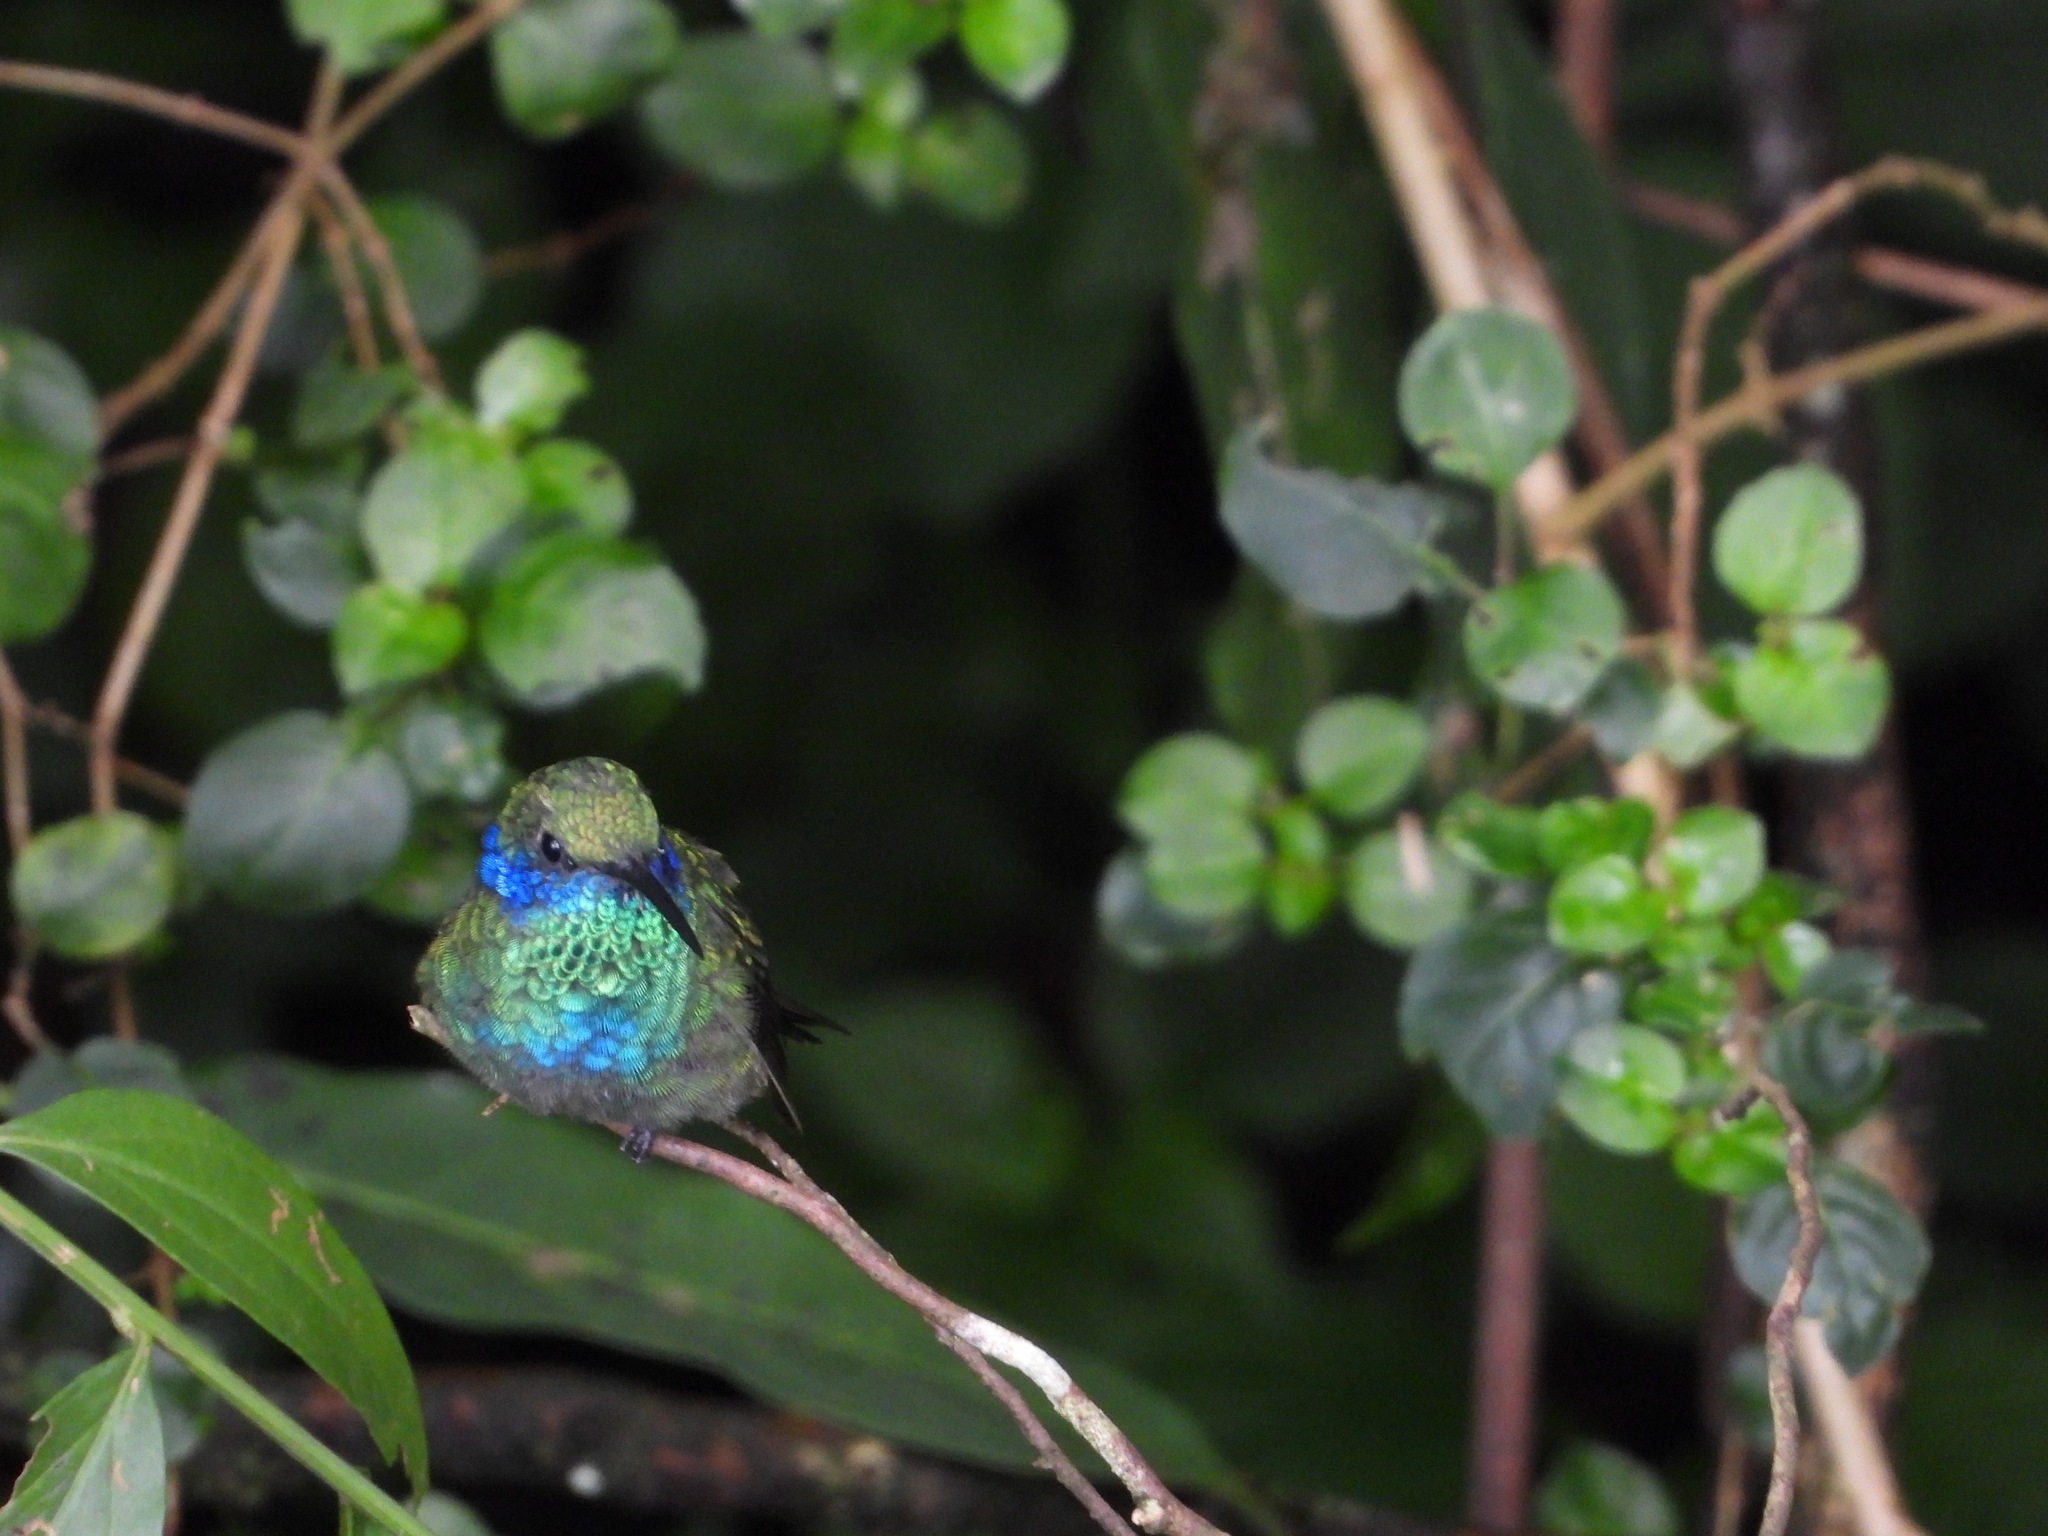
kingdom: Animalia
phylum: Chordata
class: Aves
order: Apodiformes
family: Trochilidae
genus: Colibri
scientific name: Colibri thalassinus
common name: Green violetear
